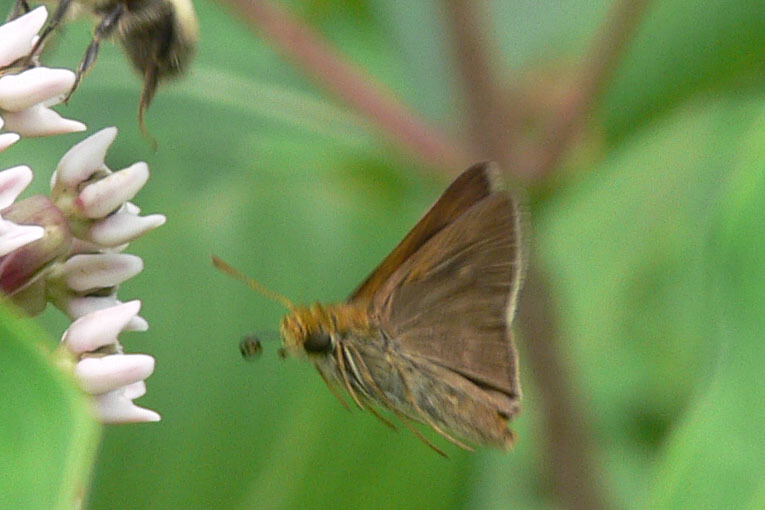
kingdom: Animalia
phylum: Arthropoda
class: Insecta
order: Lepidoptera
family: Hesperiidae
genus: Euphyes
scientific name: Euphyes vestris
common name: Dun skipper
